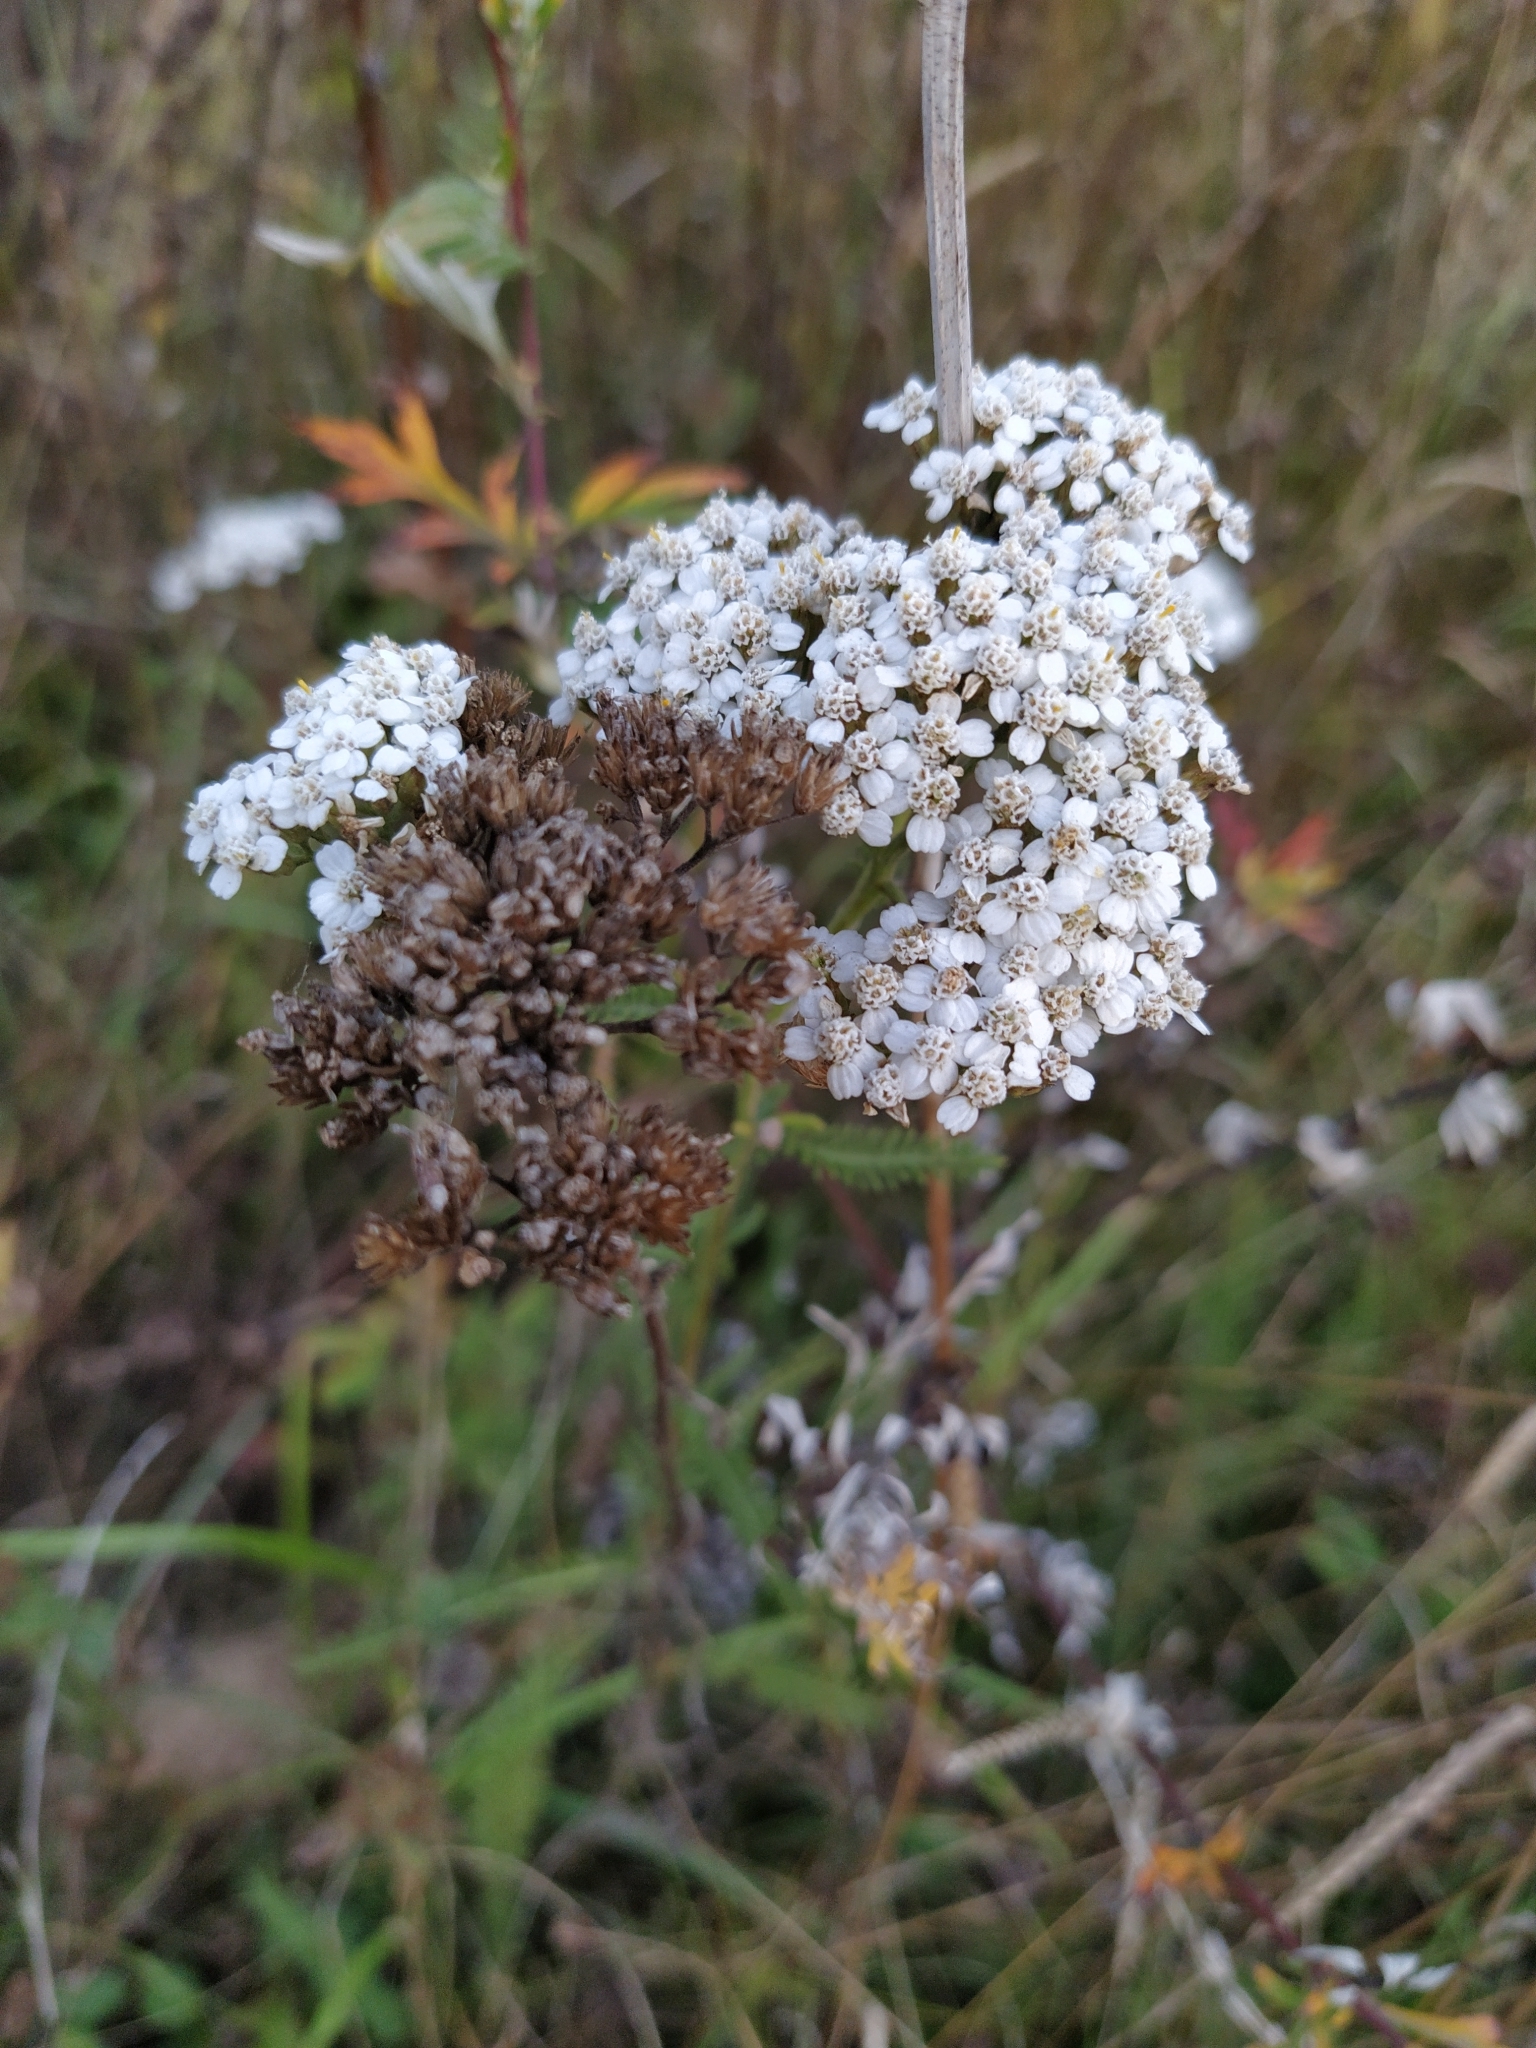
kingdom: Plantae
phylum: Tracheophyta
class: Magnoliopsida
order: Asterales
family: Asteraceae
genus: Achillea
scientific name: Achillea millefolium
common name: Yarrow
